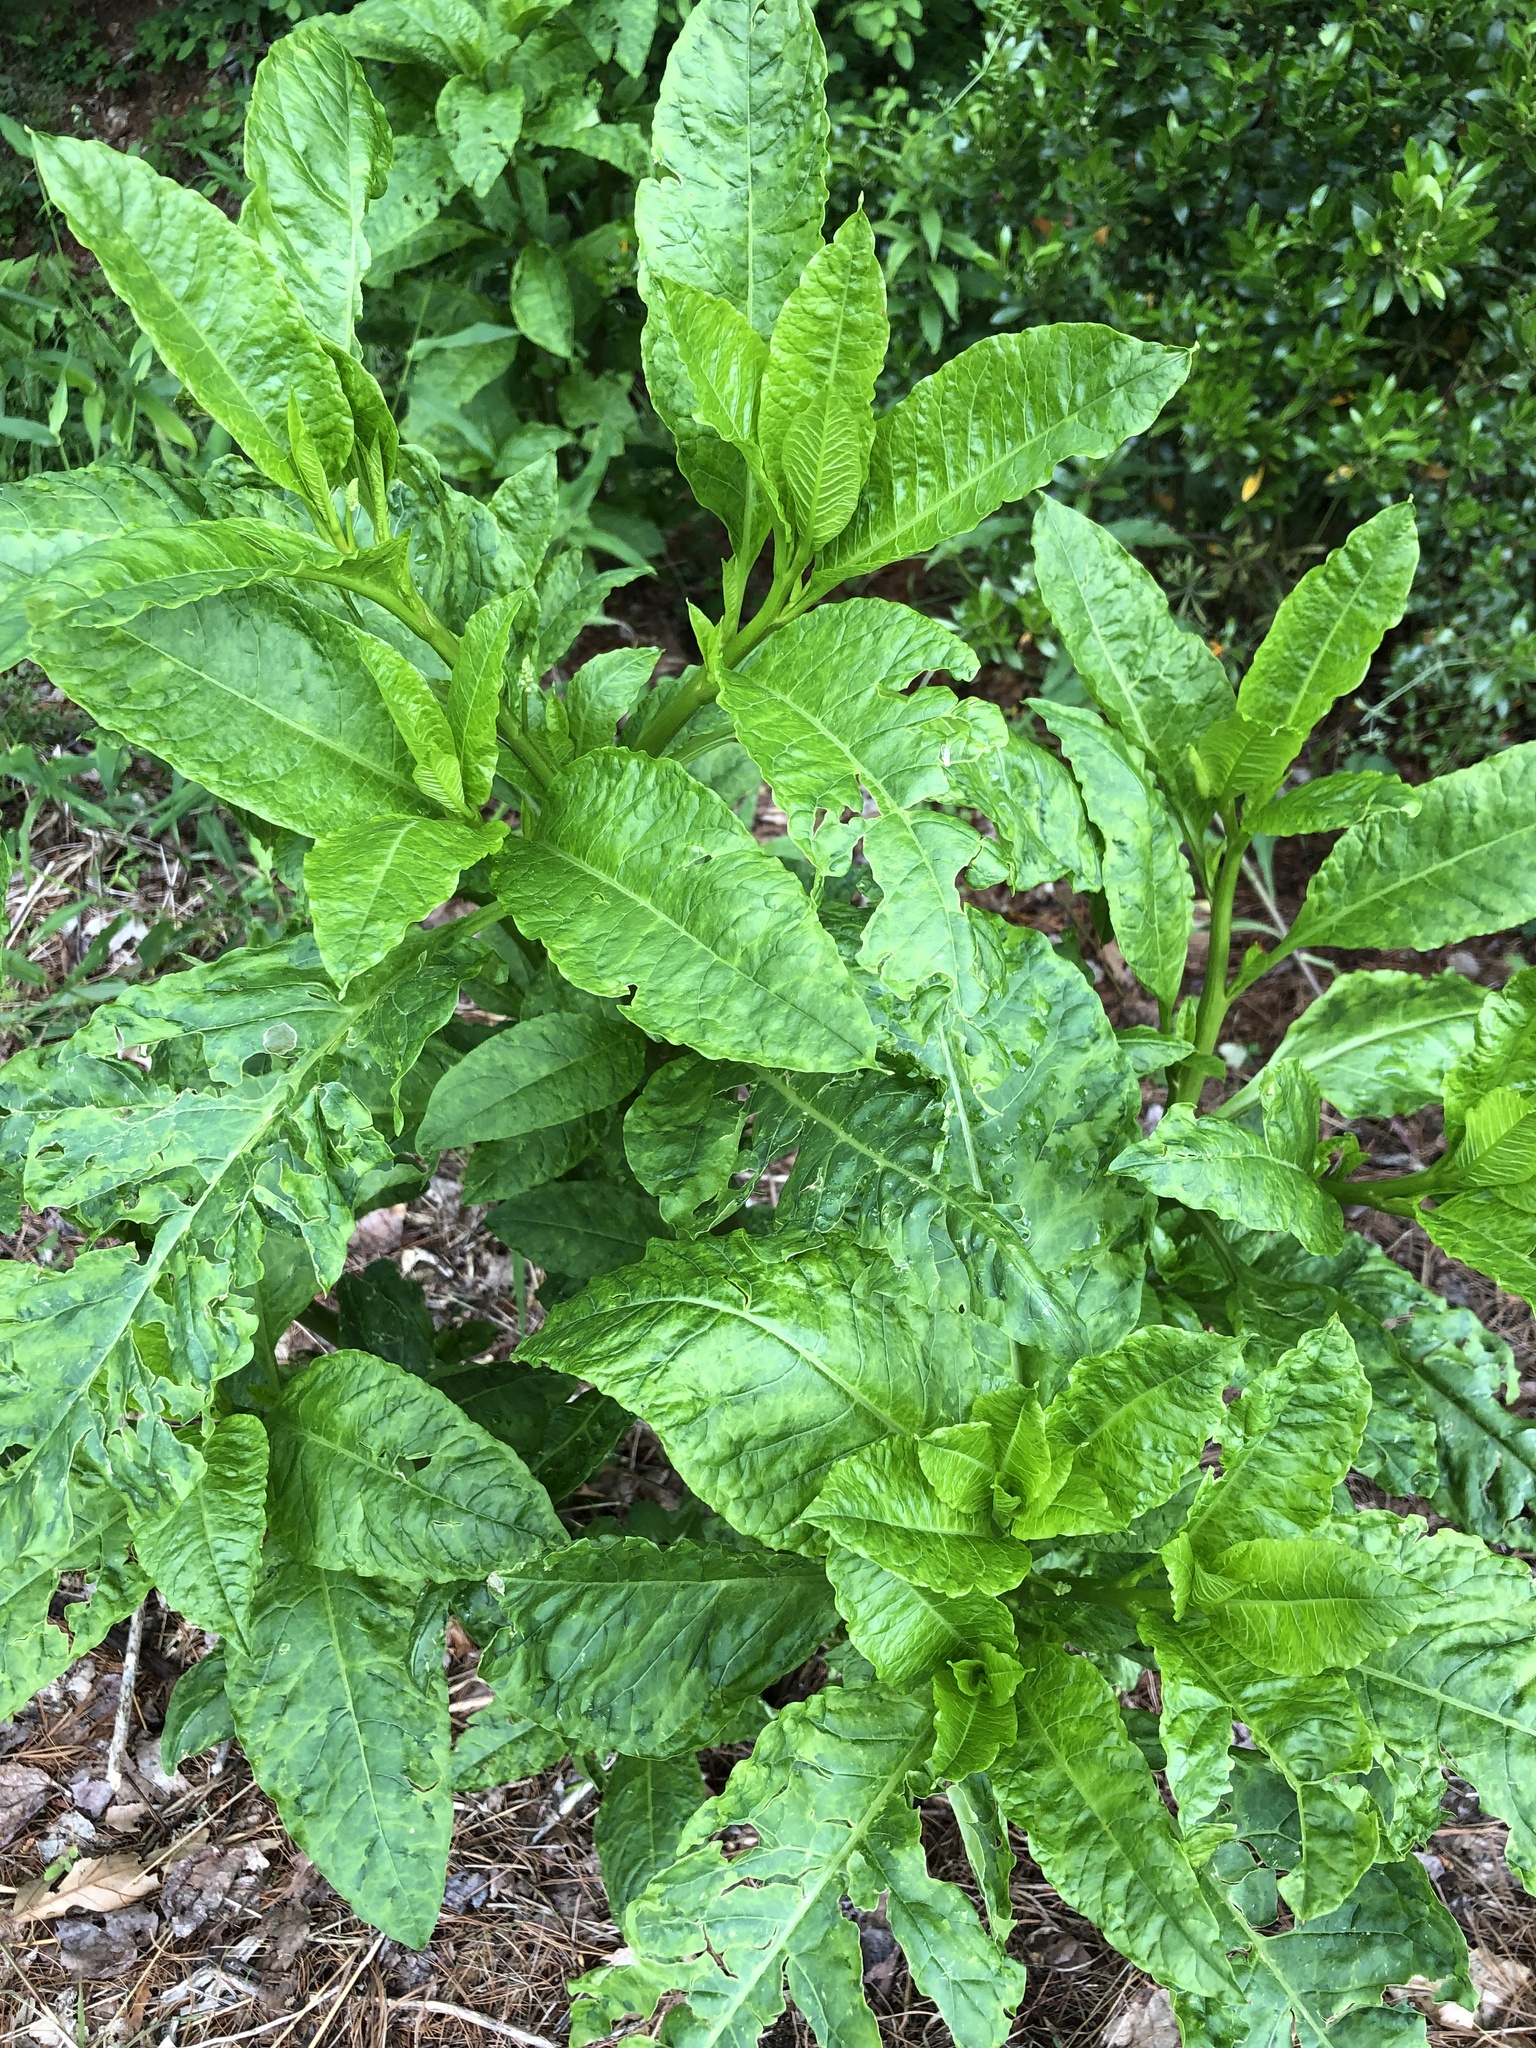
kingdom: Plantae
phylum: Tracheophyta
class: Magnoliopsida
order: Caryophyllales
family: Phytolaccaceae
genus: Phytolacca
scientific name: Phytolacca americana
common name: American pokeweed
